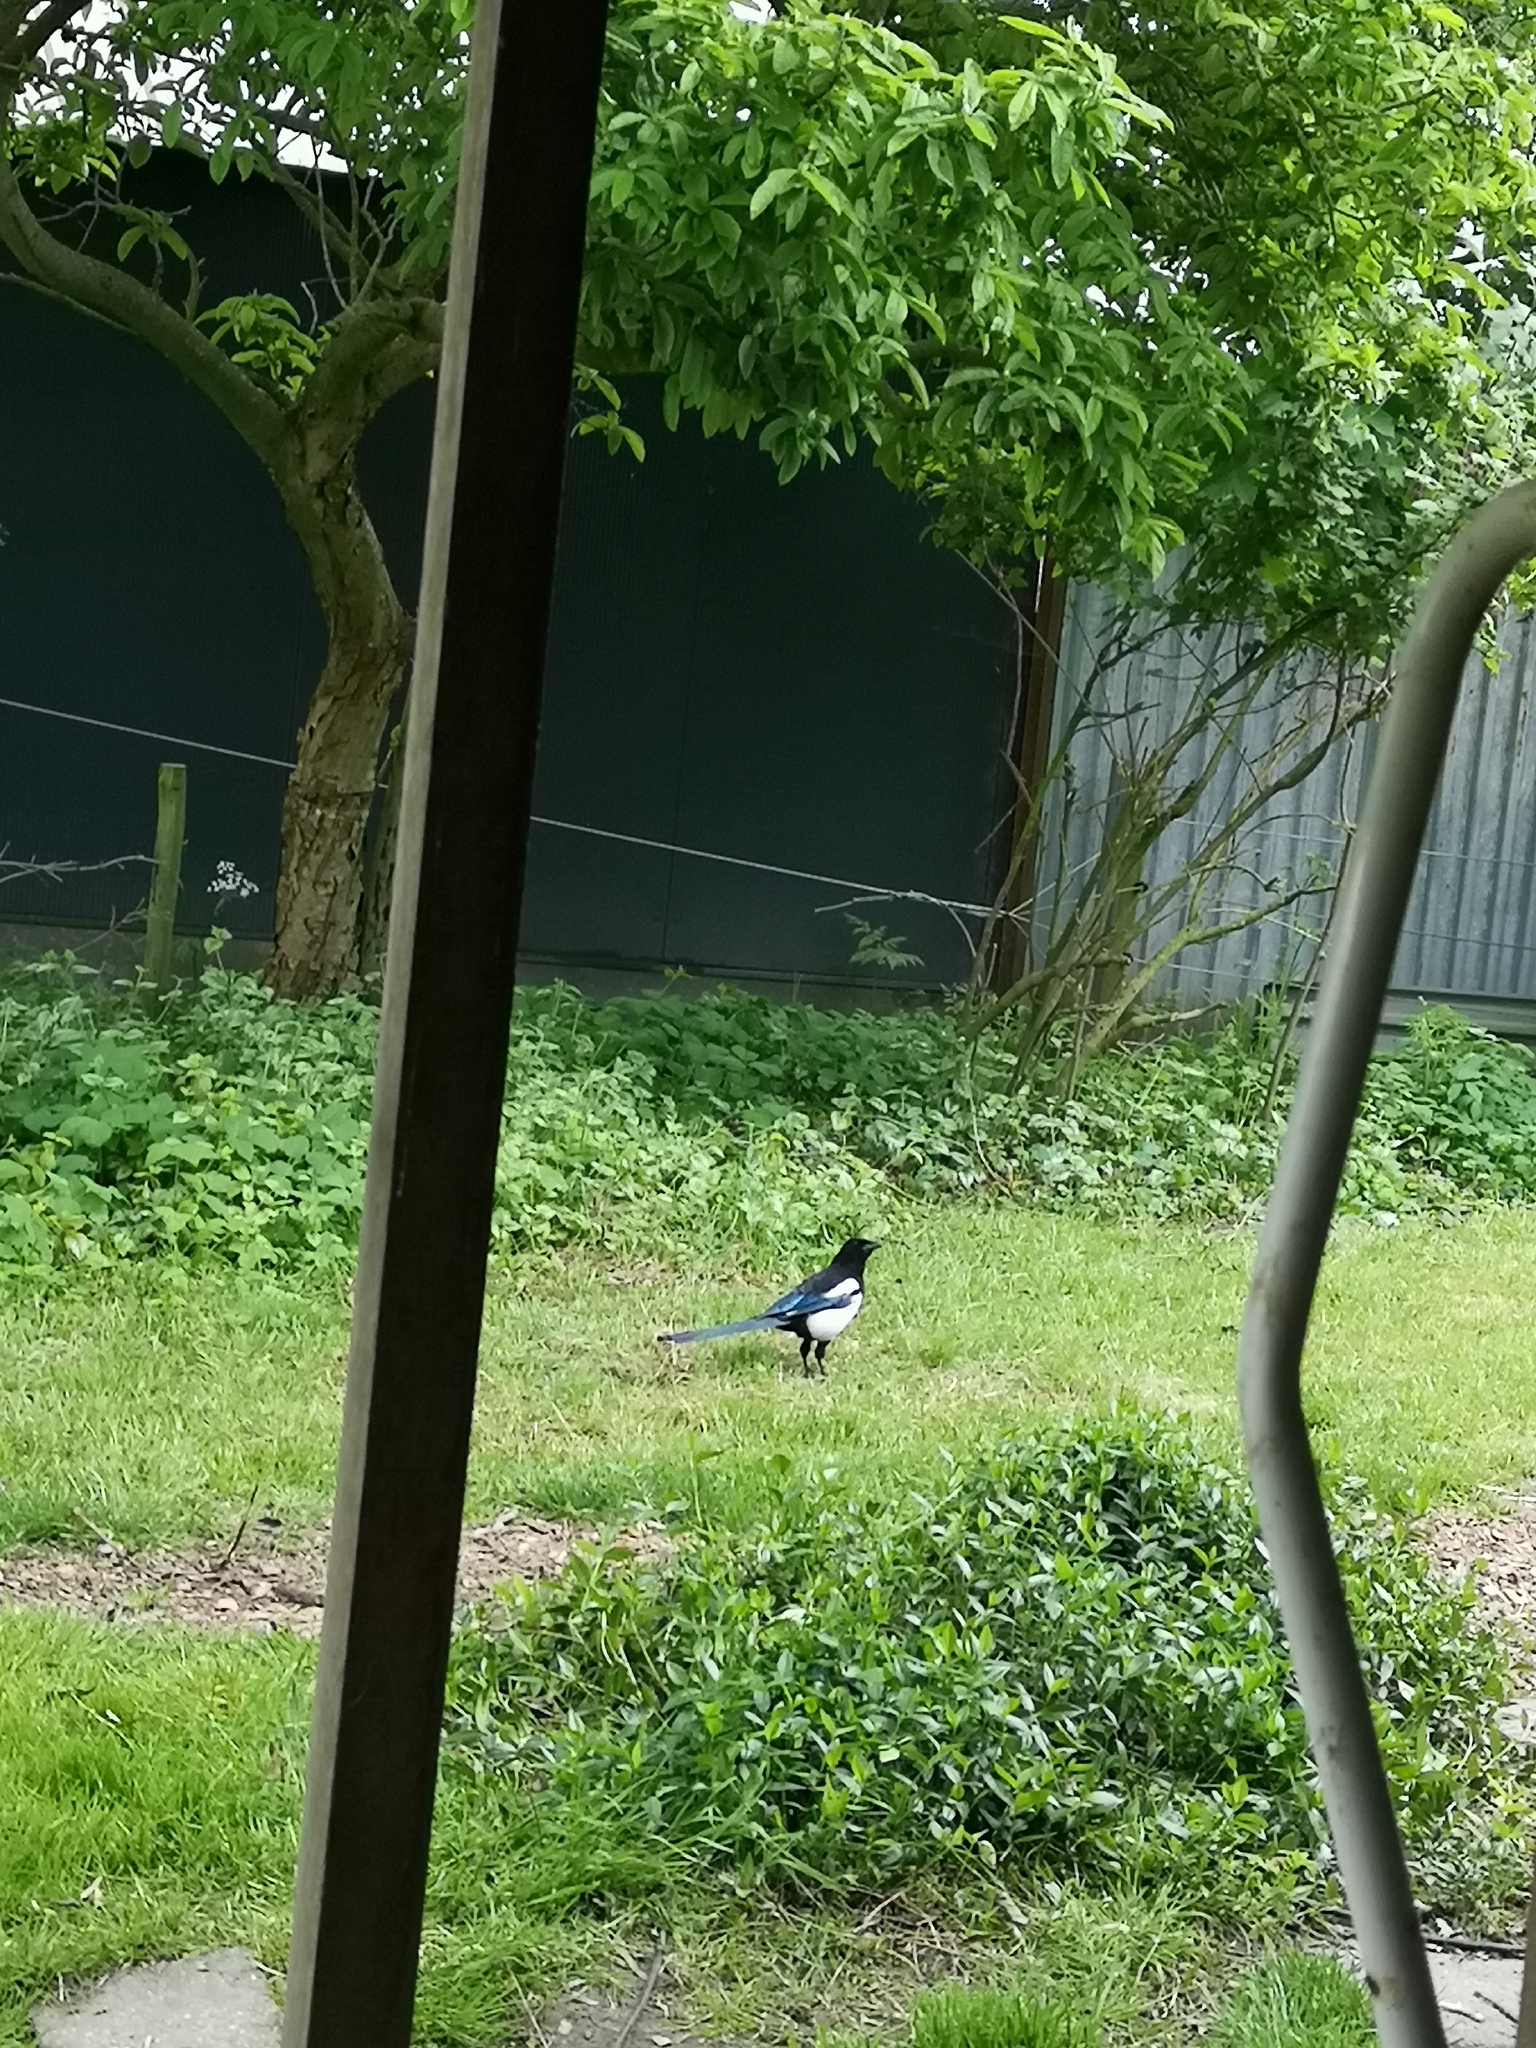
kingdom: Animalia
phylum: Chordata
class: Aves
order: Passeriformes
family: Corvidae
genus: Pica
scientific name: Pica pica
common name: Eurasian magpie
